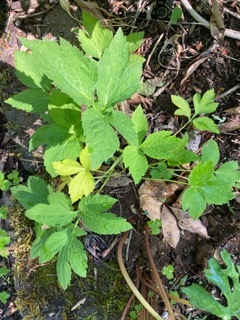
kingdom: Plantae
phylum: Tracheophyta
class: Magnoliopsida
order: Apiales
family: Apiaceae
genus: Cryptotaenia
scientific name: Cryptotaenia canadensis
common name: Honewort
